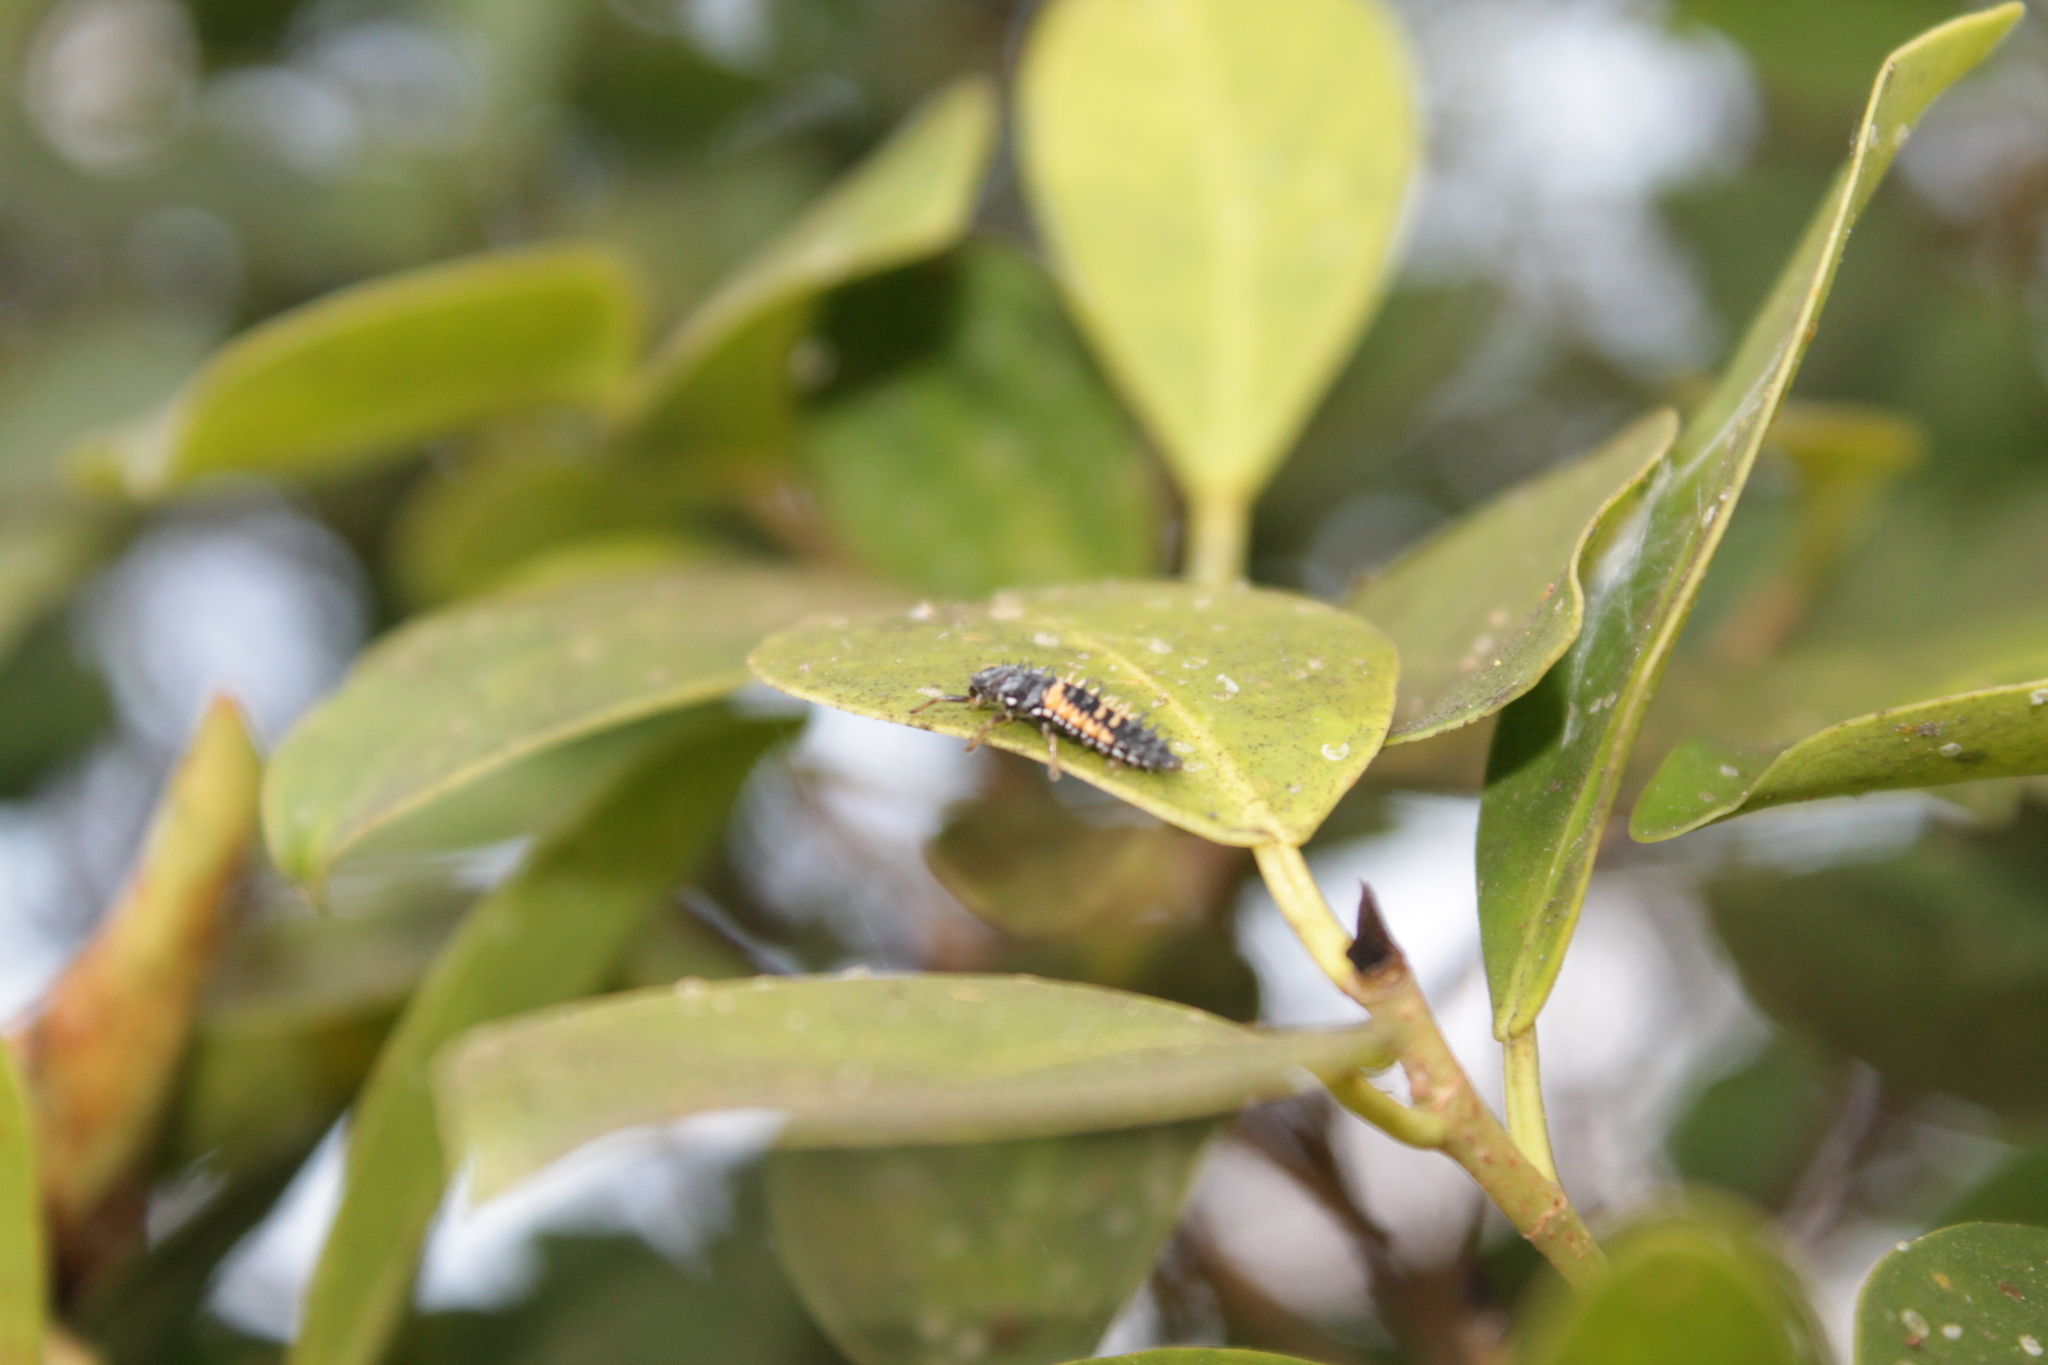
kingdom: Animalia
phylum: Arthropoda
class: Insecta
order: Coleoptera
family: Coccinellidae
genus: Harmonia
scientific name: Harmonia axyridis
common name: Harlequin ladybird
